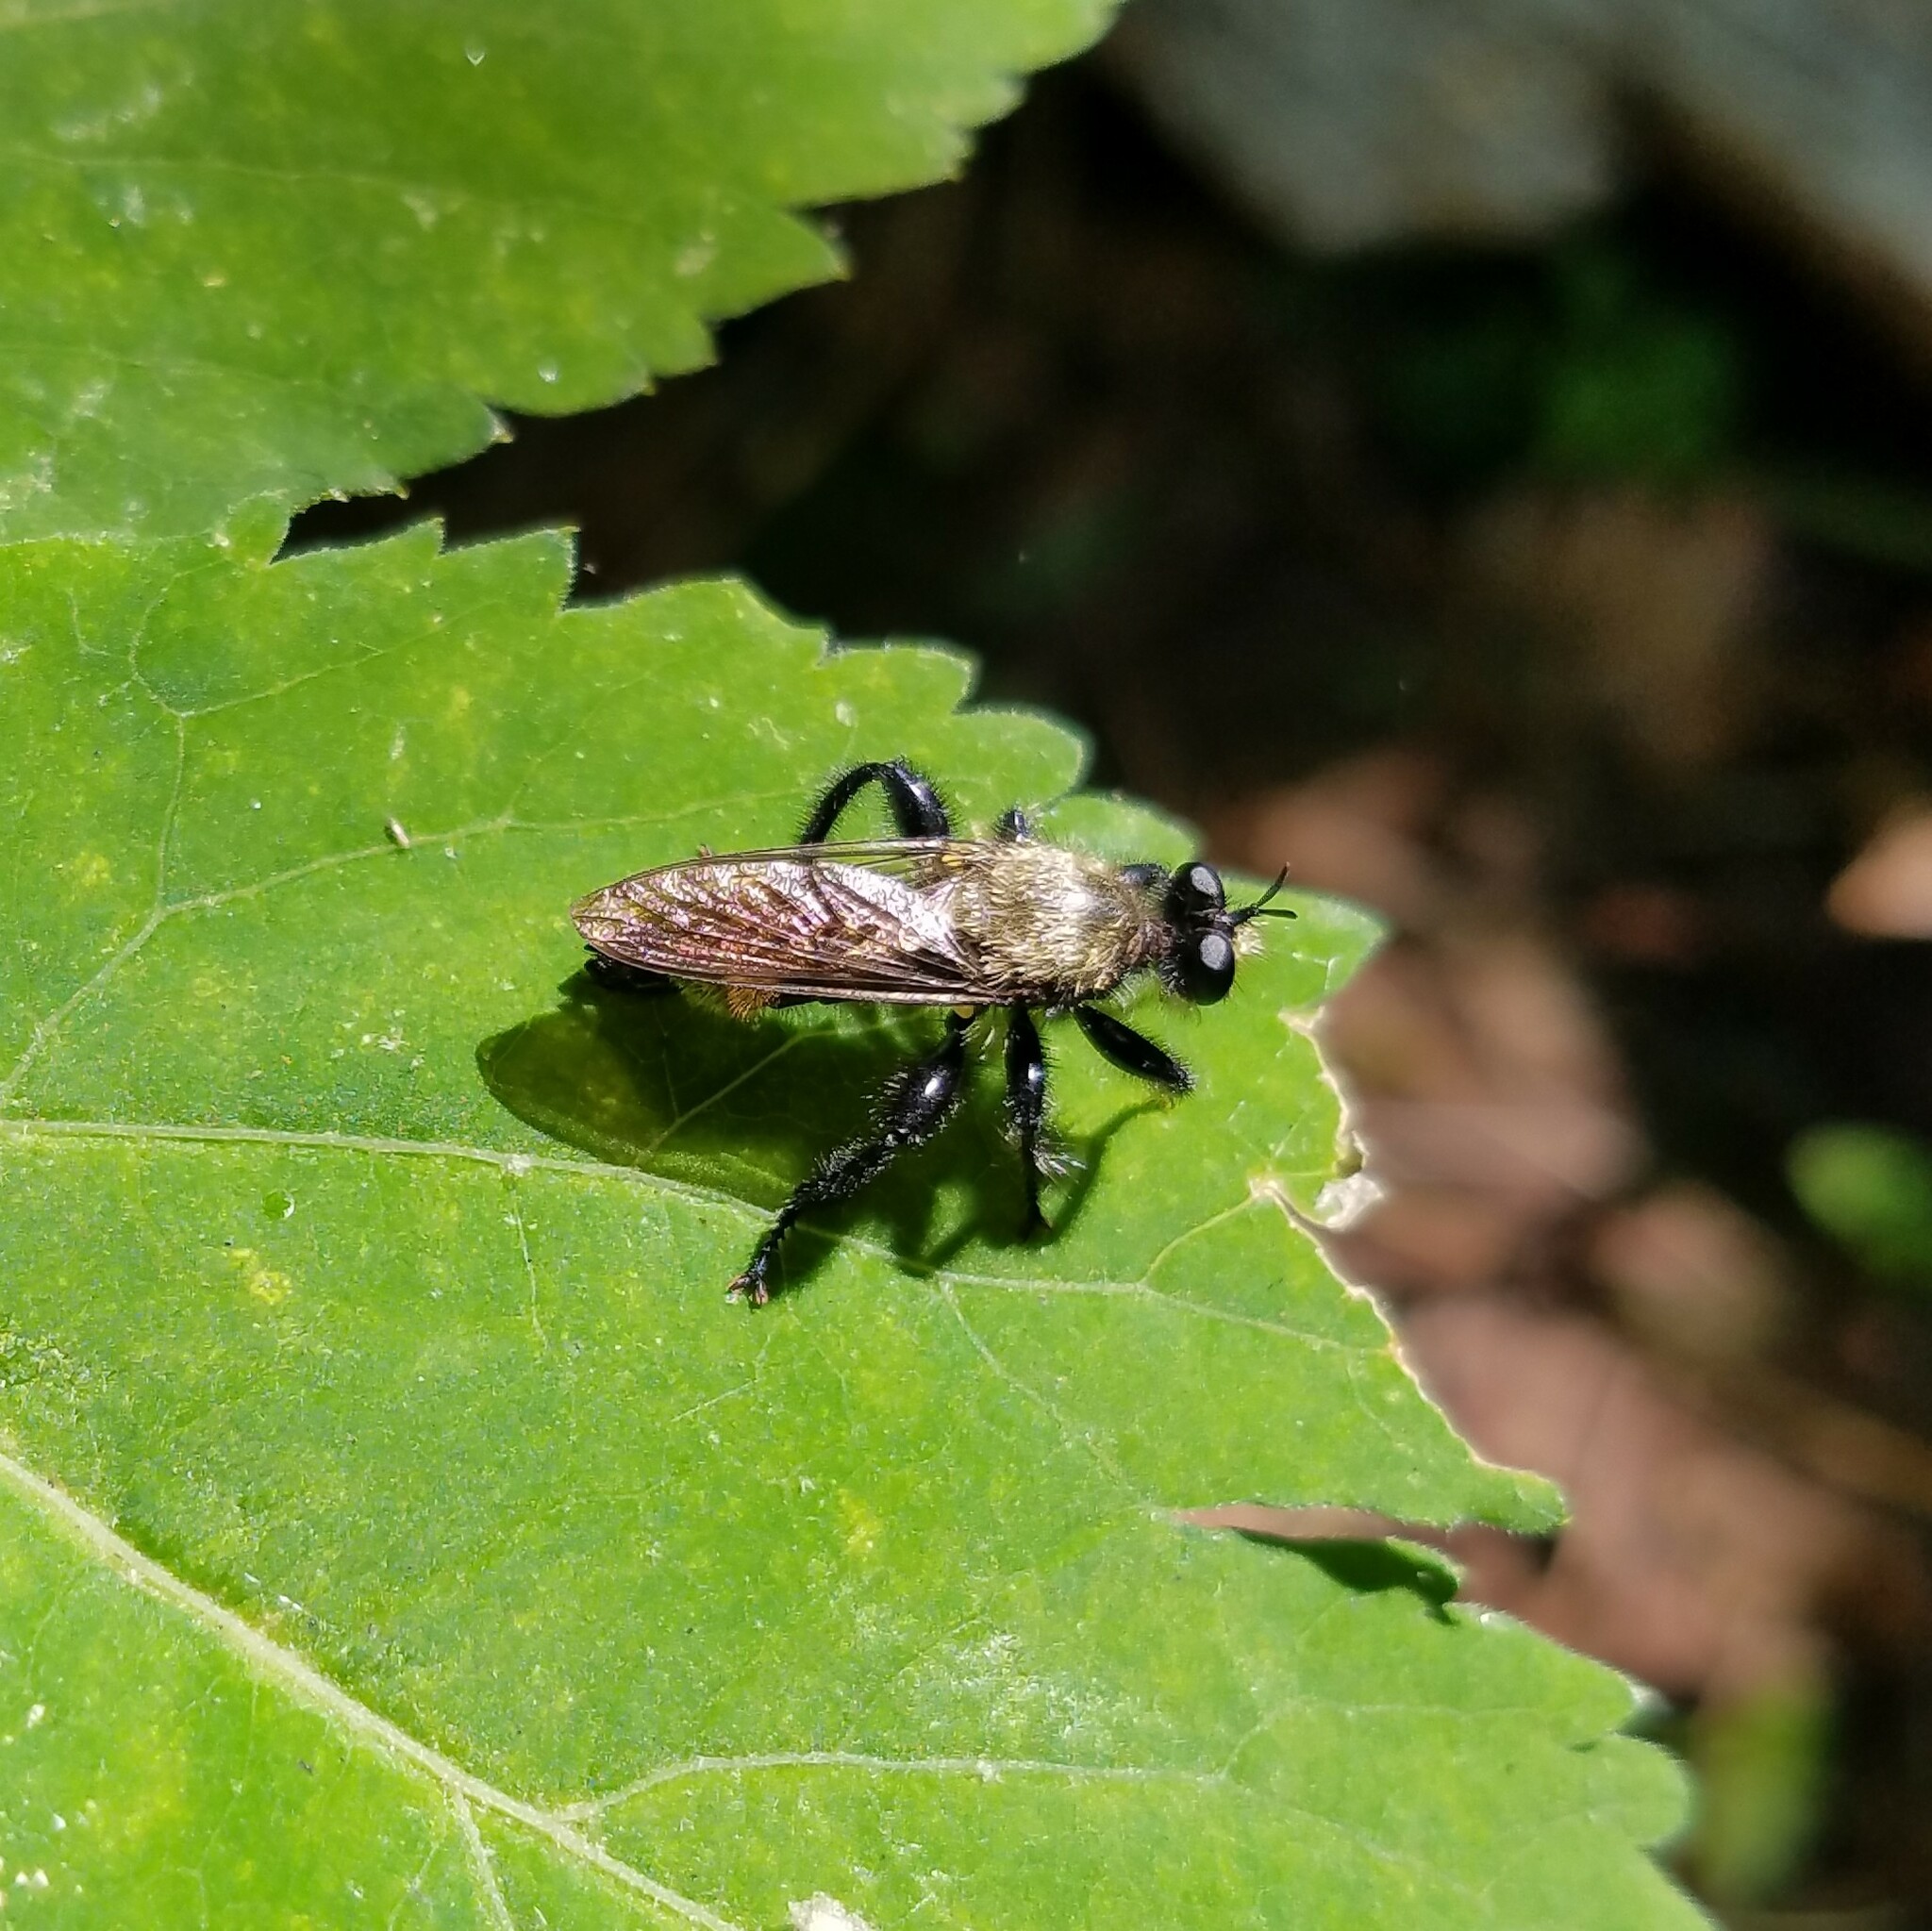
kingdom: Animalia
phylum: Arthropoda
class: Insecta
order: Diptera
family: Asilidae
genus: Laphria
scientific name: Laphria divisor
